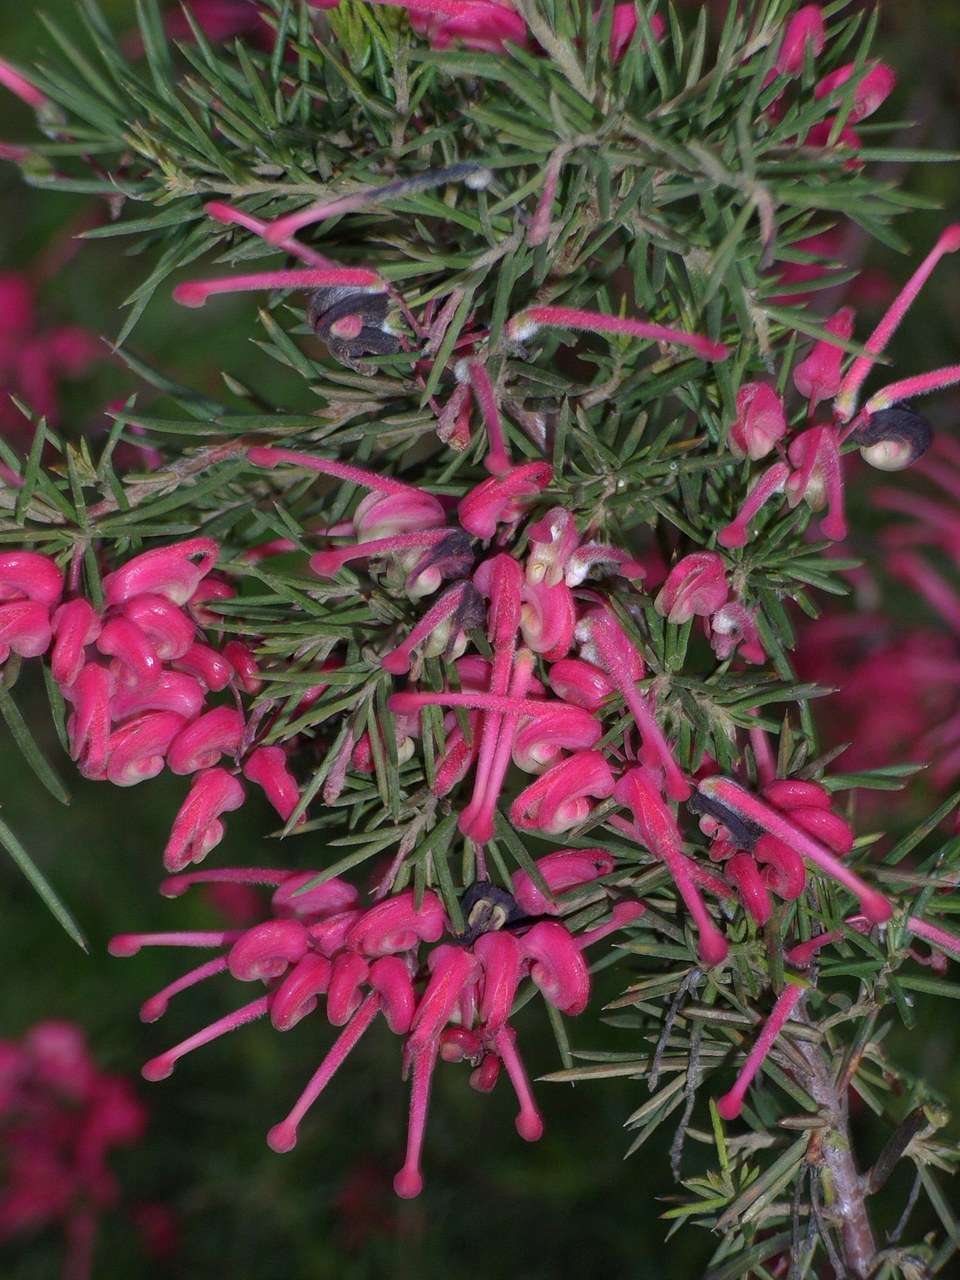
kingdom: Plantae
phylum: Tracheophyta
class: Magnoliopsida
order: Proteales
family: Proteaceae
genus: Grevillea
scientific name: Grevillea rosmarinifolia
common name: Rosemary grevillea
